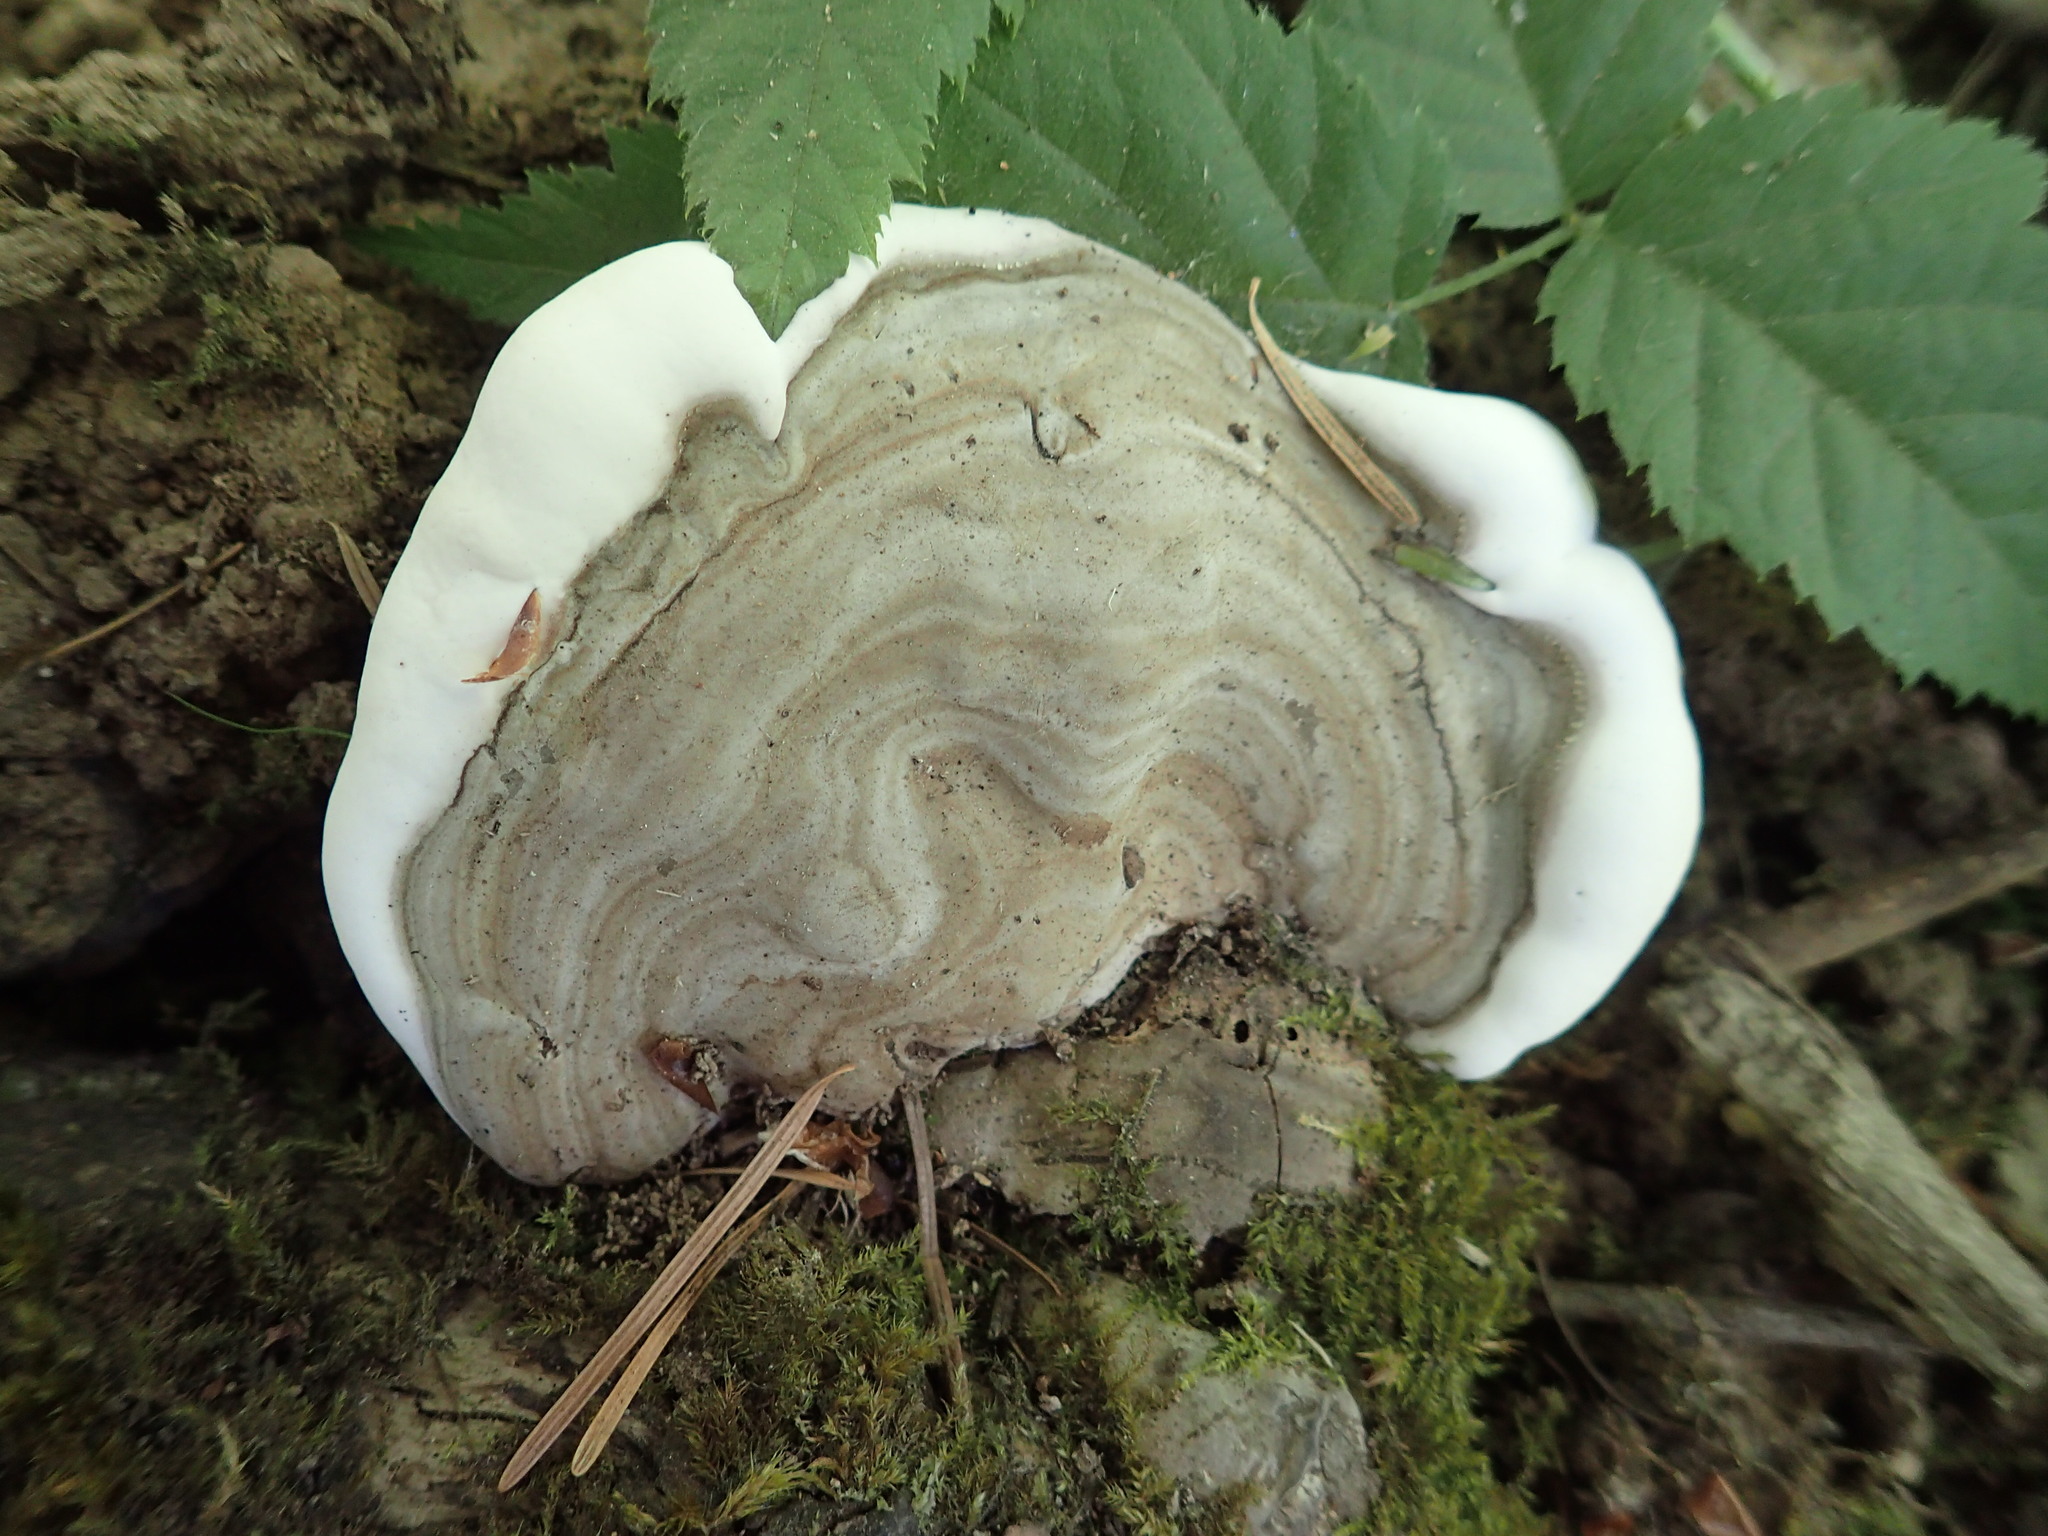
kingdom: Fungi
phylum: Basidiomycota
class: Agaricomycetes
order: Polyporales
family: Polyporaceae
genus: Ganoderma
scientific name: Ganoderma applanatum
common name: Artist's bracket
